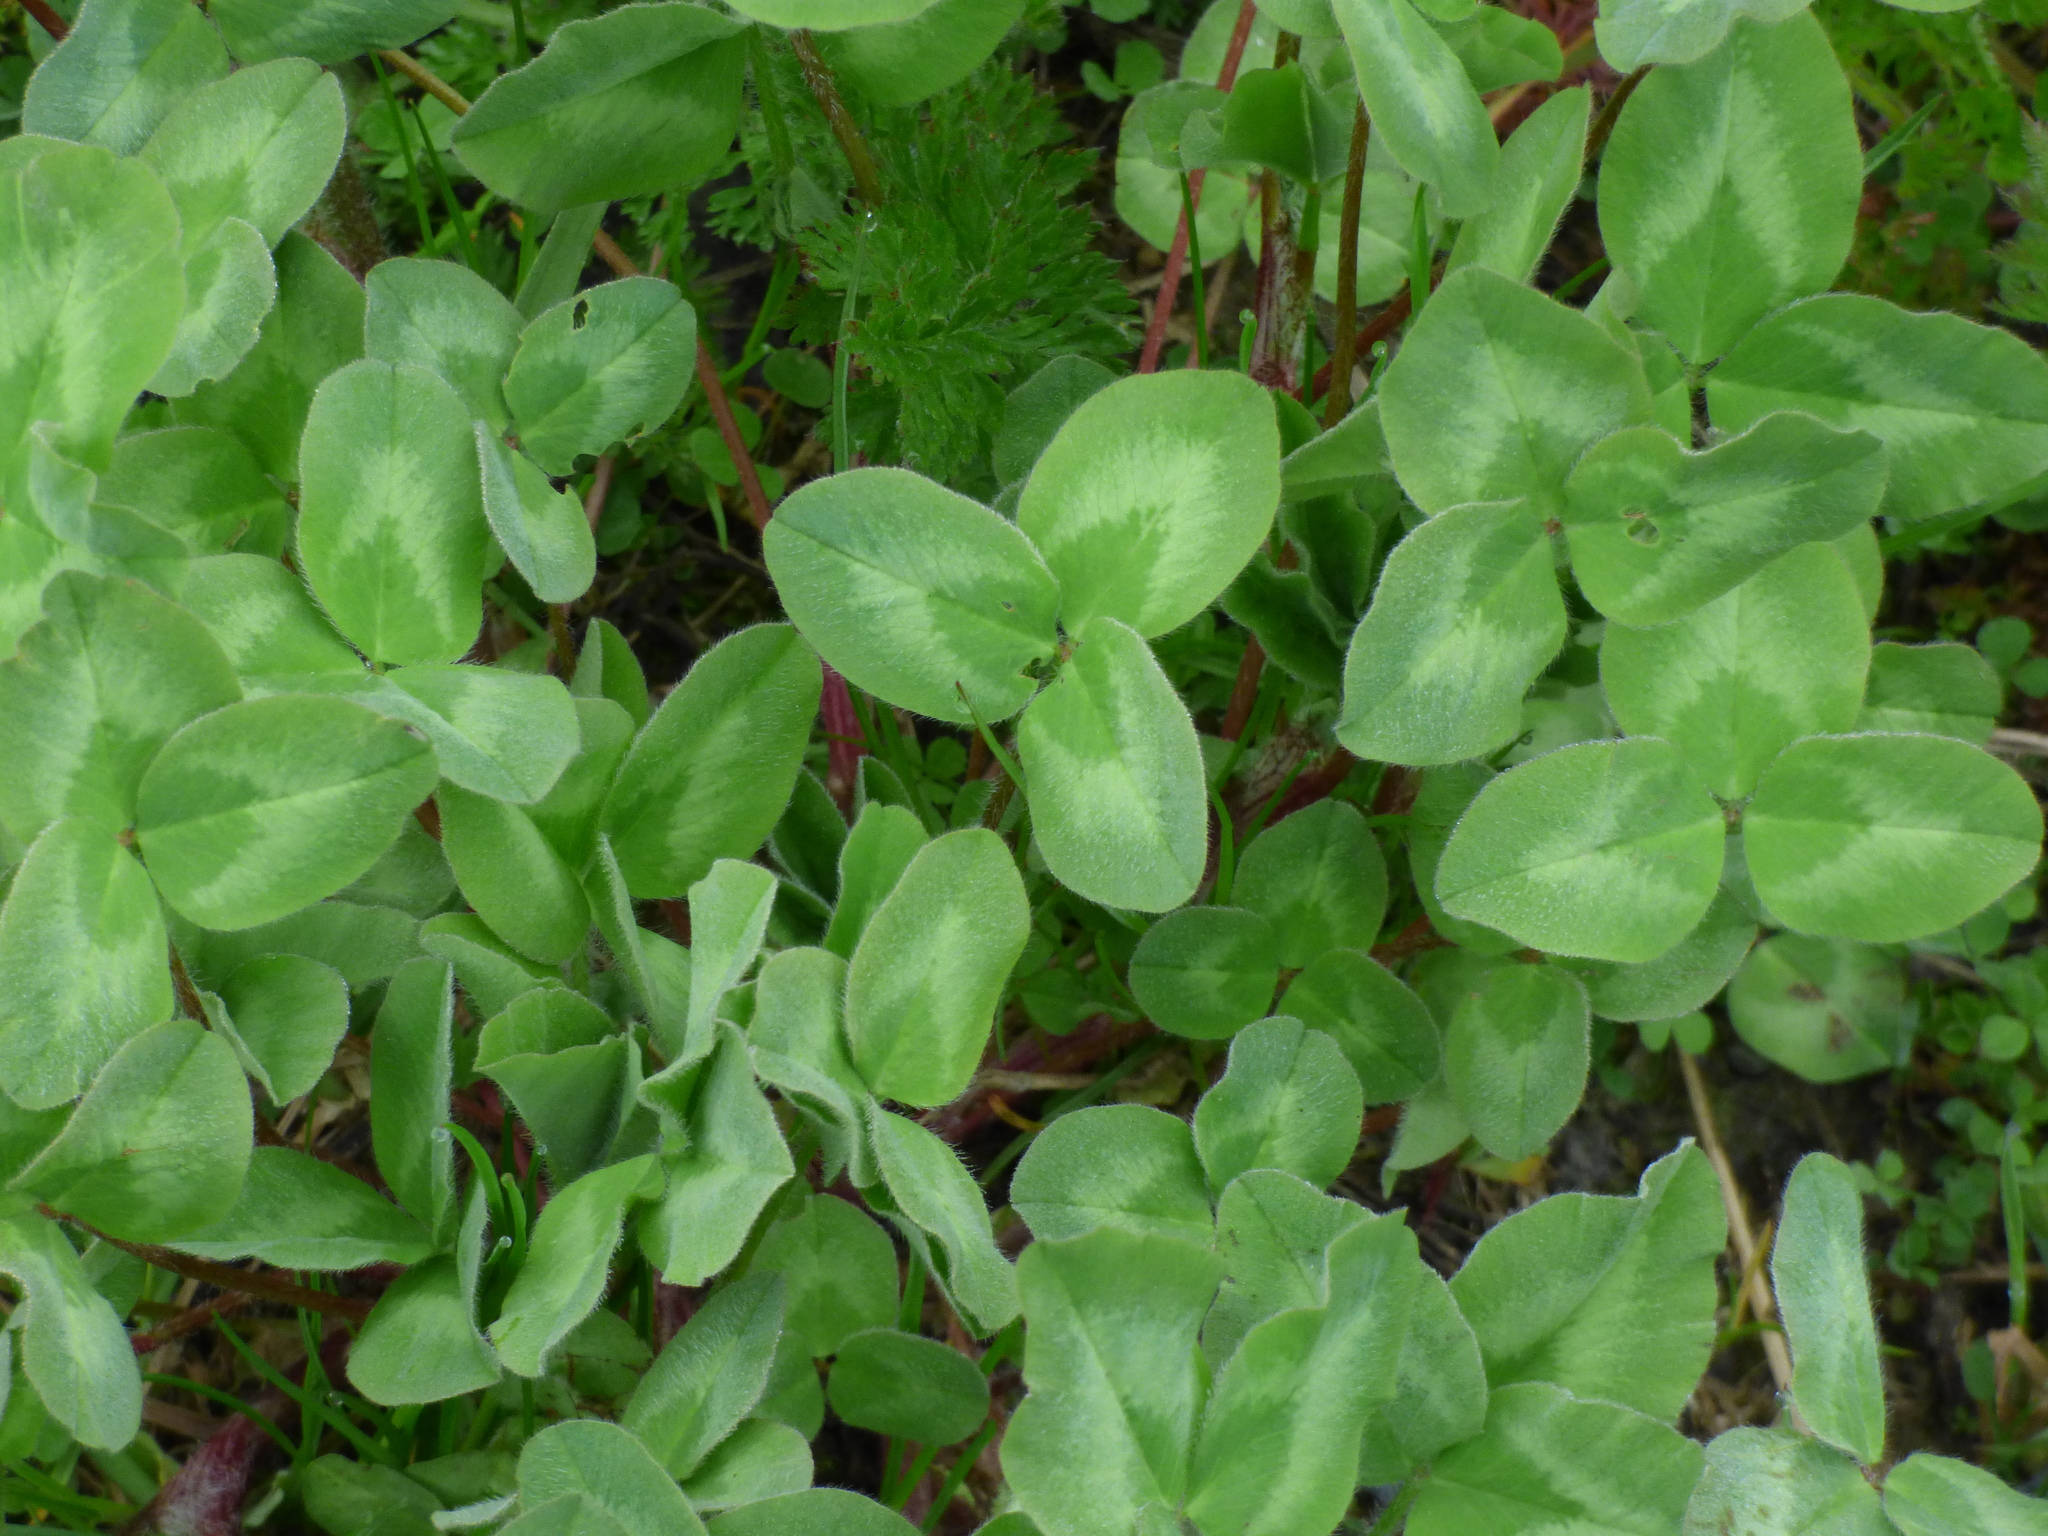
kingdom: Plantae
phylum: Tracheophyta
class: Magnoliopsida
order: Fabales
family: Fabaceae
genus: Trifolium
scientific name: Trifolium pratense
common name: Red clover
